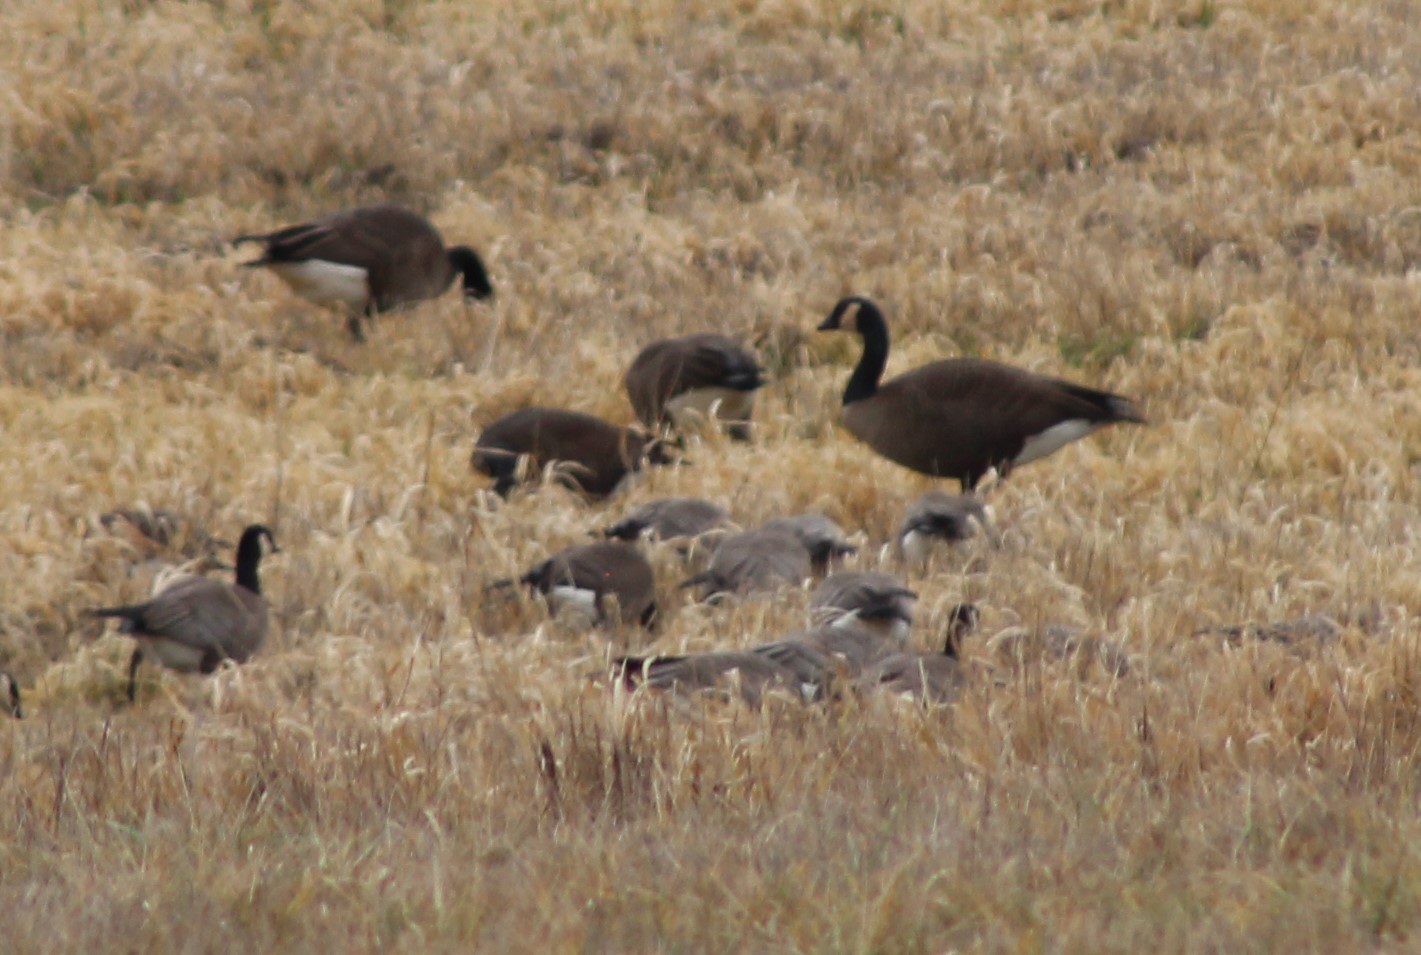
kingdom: Animalia
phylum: Chordata
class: Aves
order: Anseriformes
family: Anatidae
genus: Branta
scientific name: Branta canadensis
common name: Canada goose
